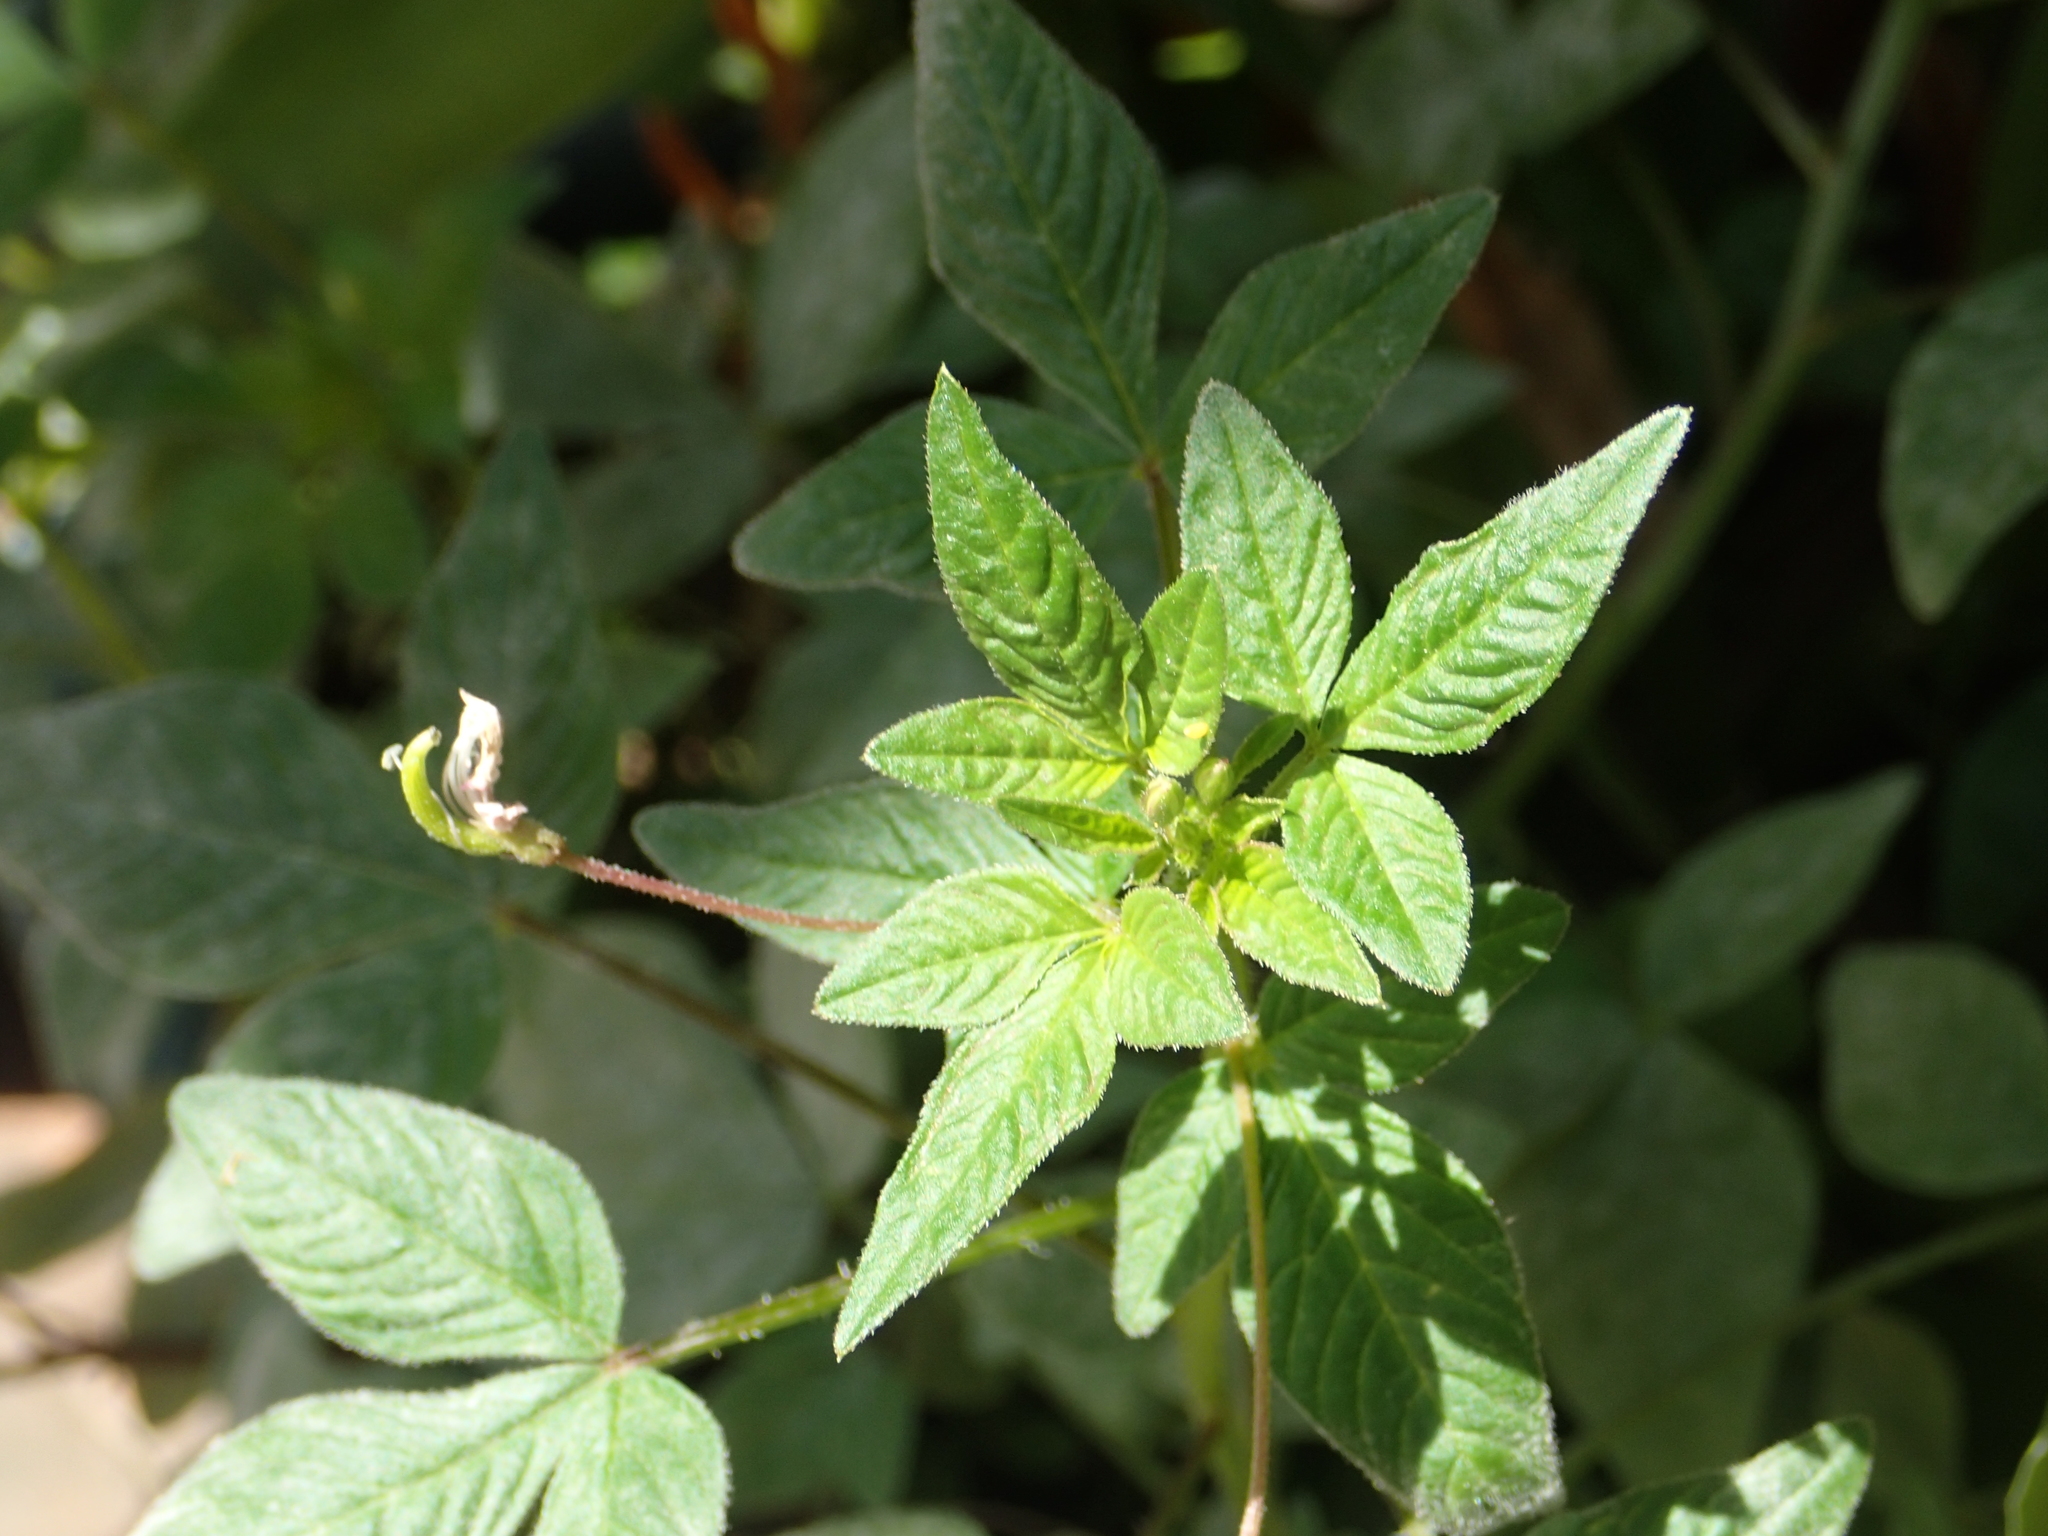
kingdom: Plantae
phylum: Tracheophyta
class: Magnoliopsida
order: Brassicales
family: Cleomaceae
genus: Sieruela
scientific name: Sieruela rutidosperma
